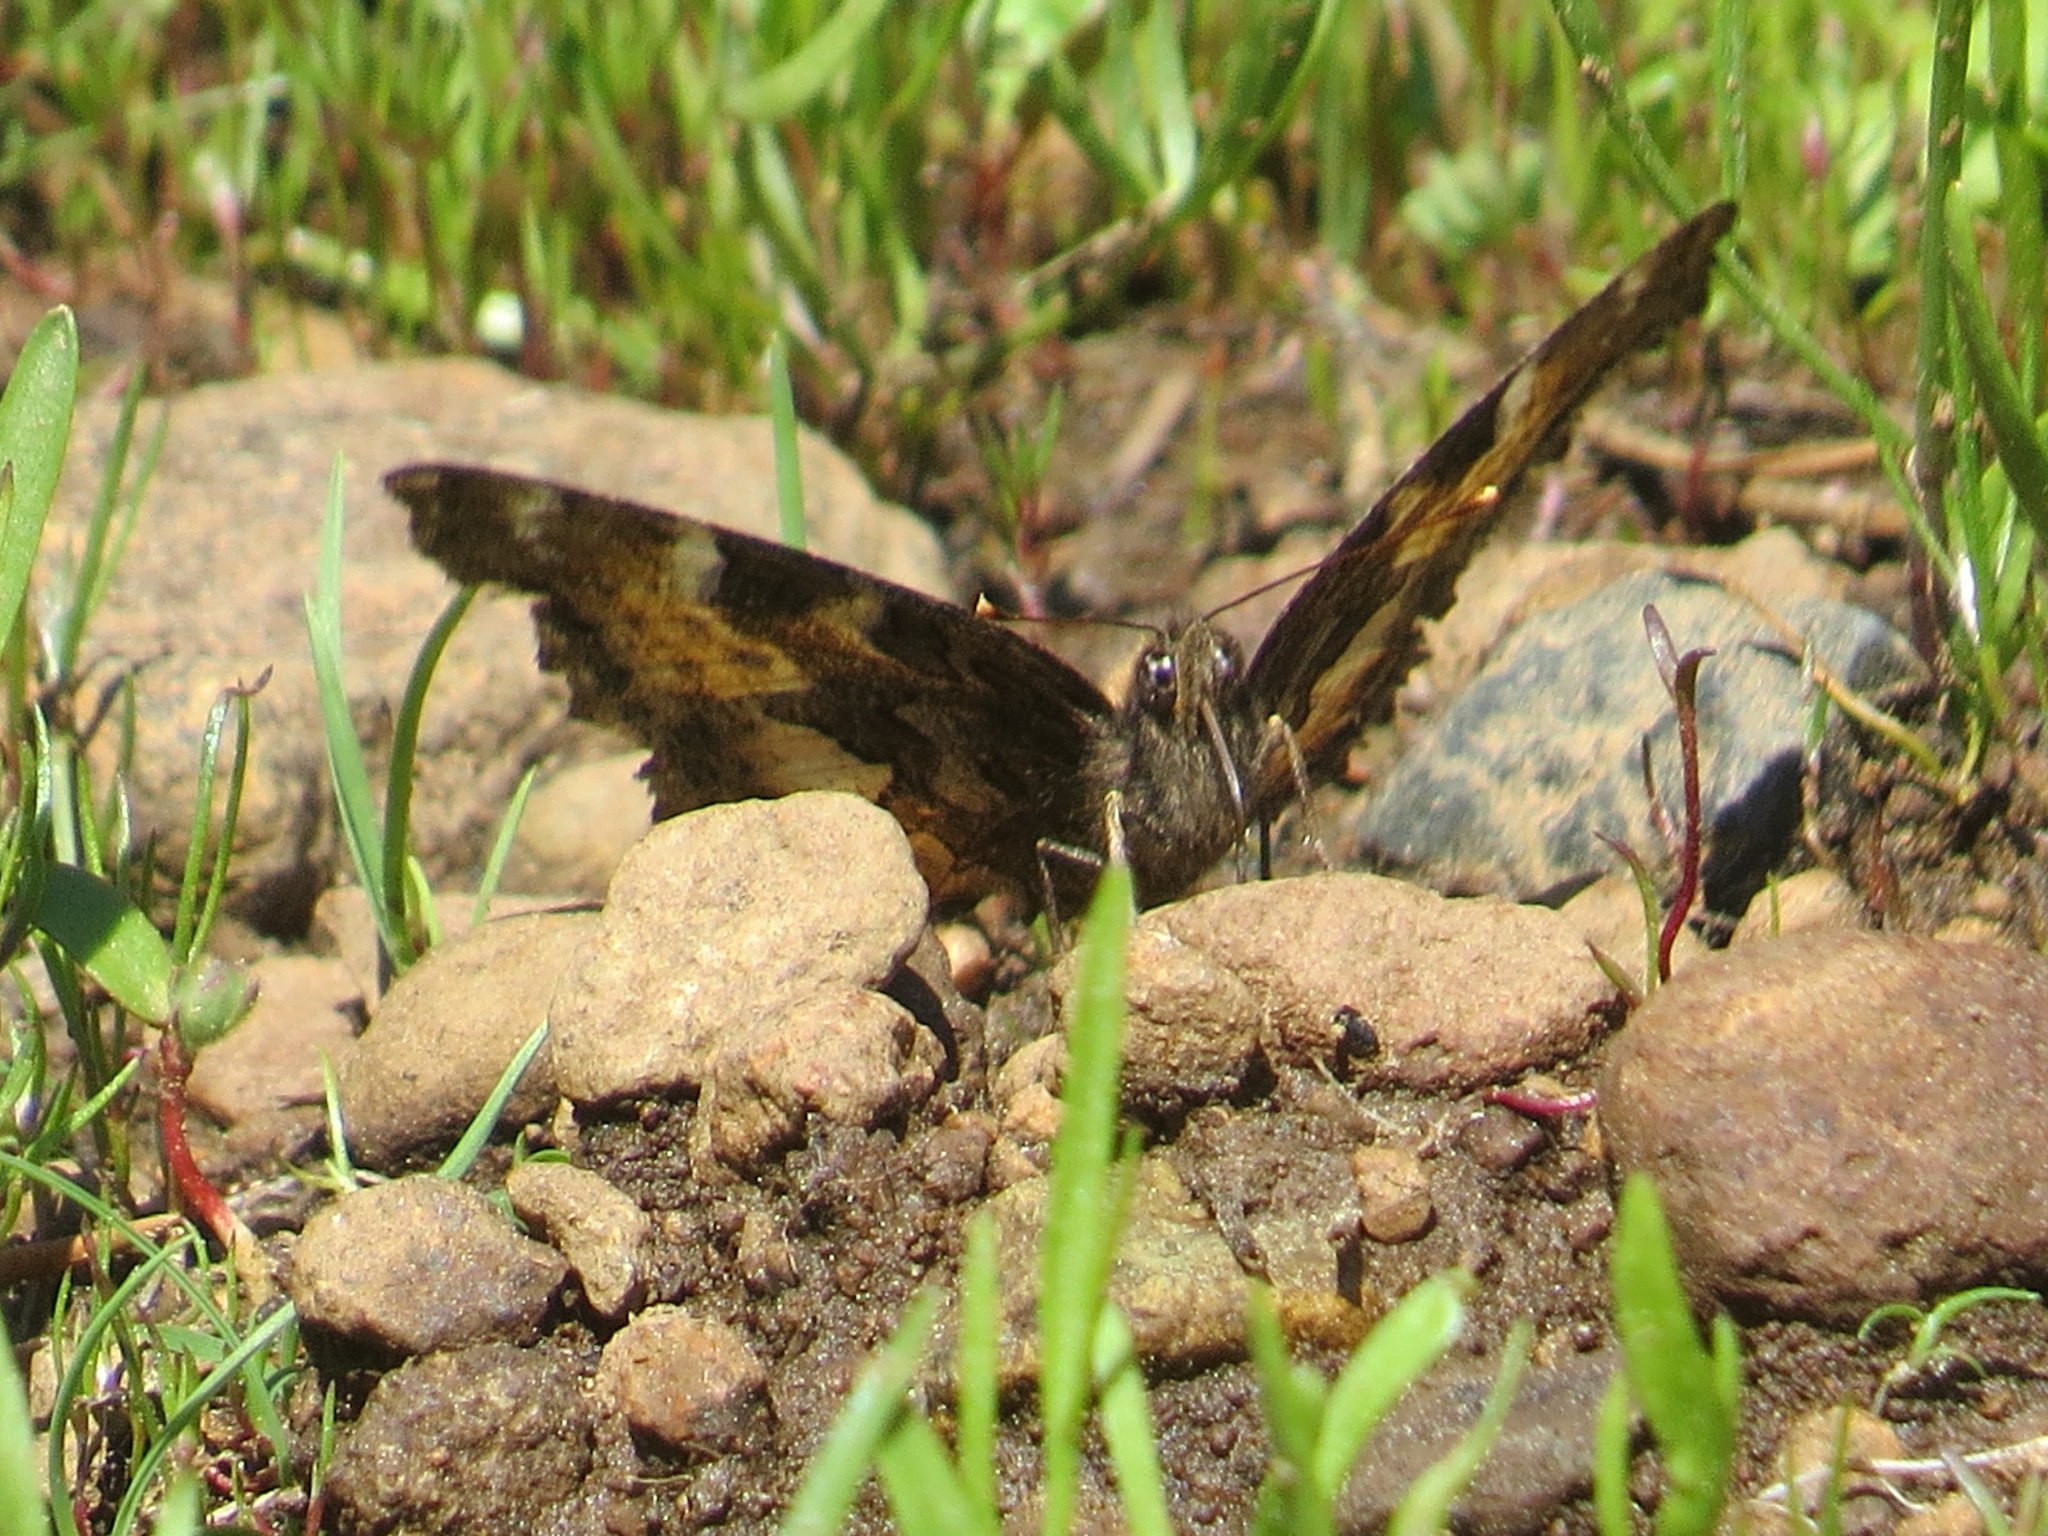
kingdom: Animalia
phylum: Arthropoda
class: Insecta
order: Lepidoptera
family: Nymphalidae
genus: Nymphalis
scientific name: Nymphalis californica
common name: California tortoiseshell
